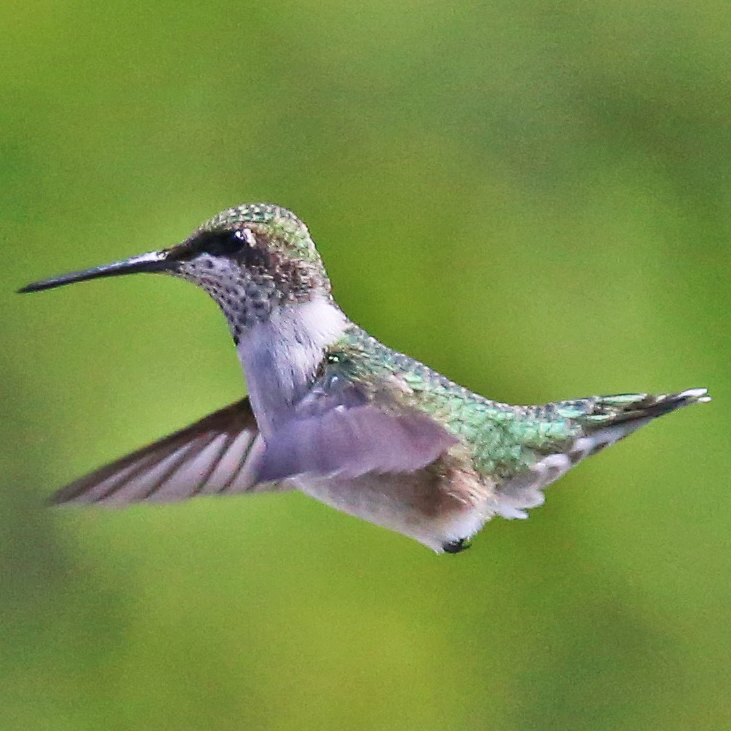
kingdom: Animalia
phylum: Chordata
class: Aves
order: Apodiformes
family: Trochilidae
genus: Archilochus
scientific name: Archilochus colubris
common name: Ruby-throated hummingbird
